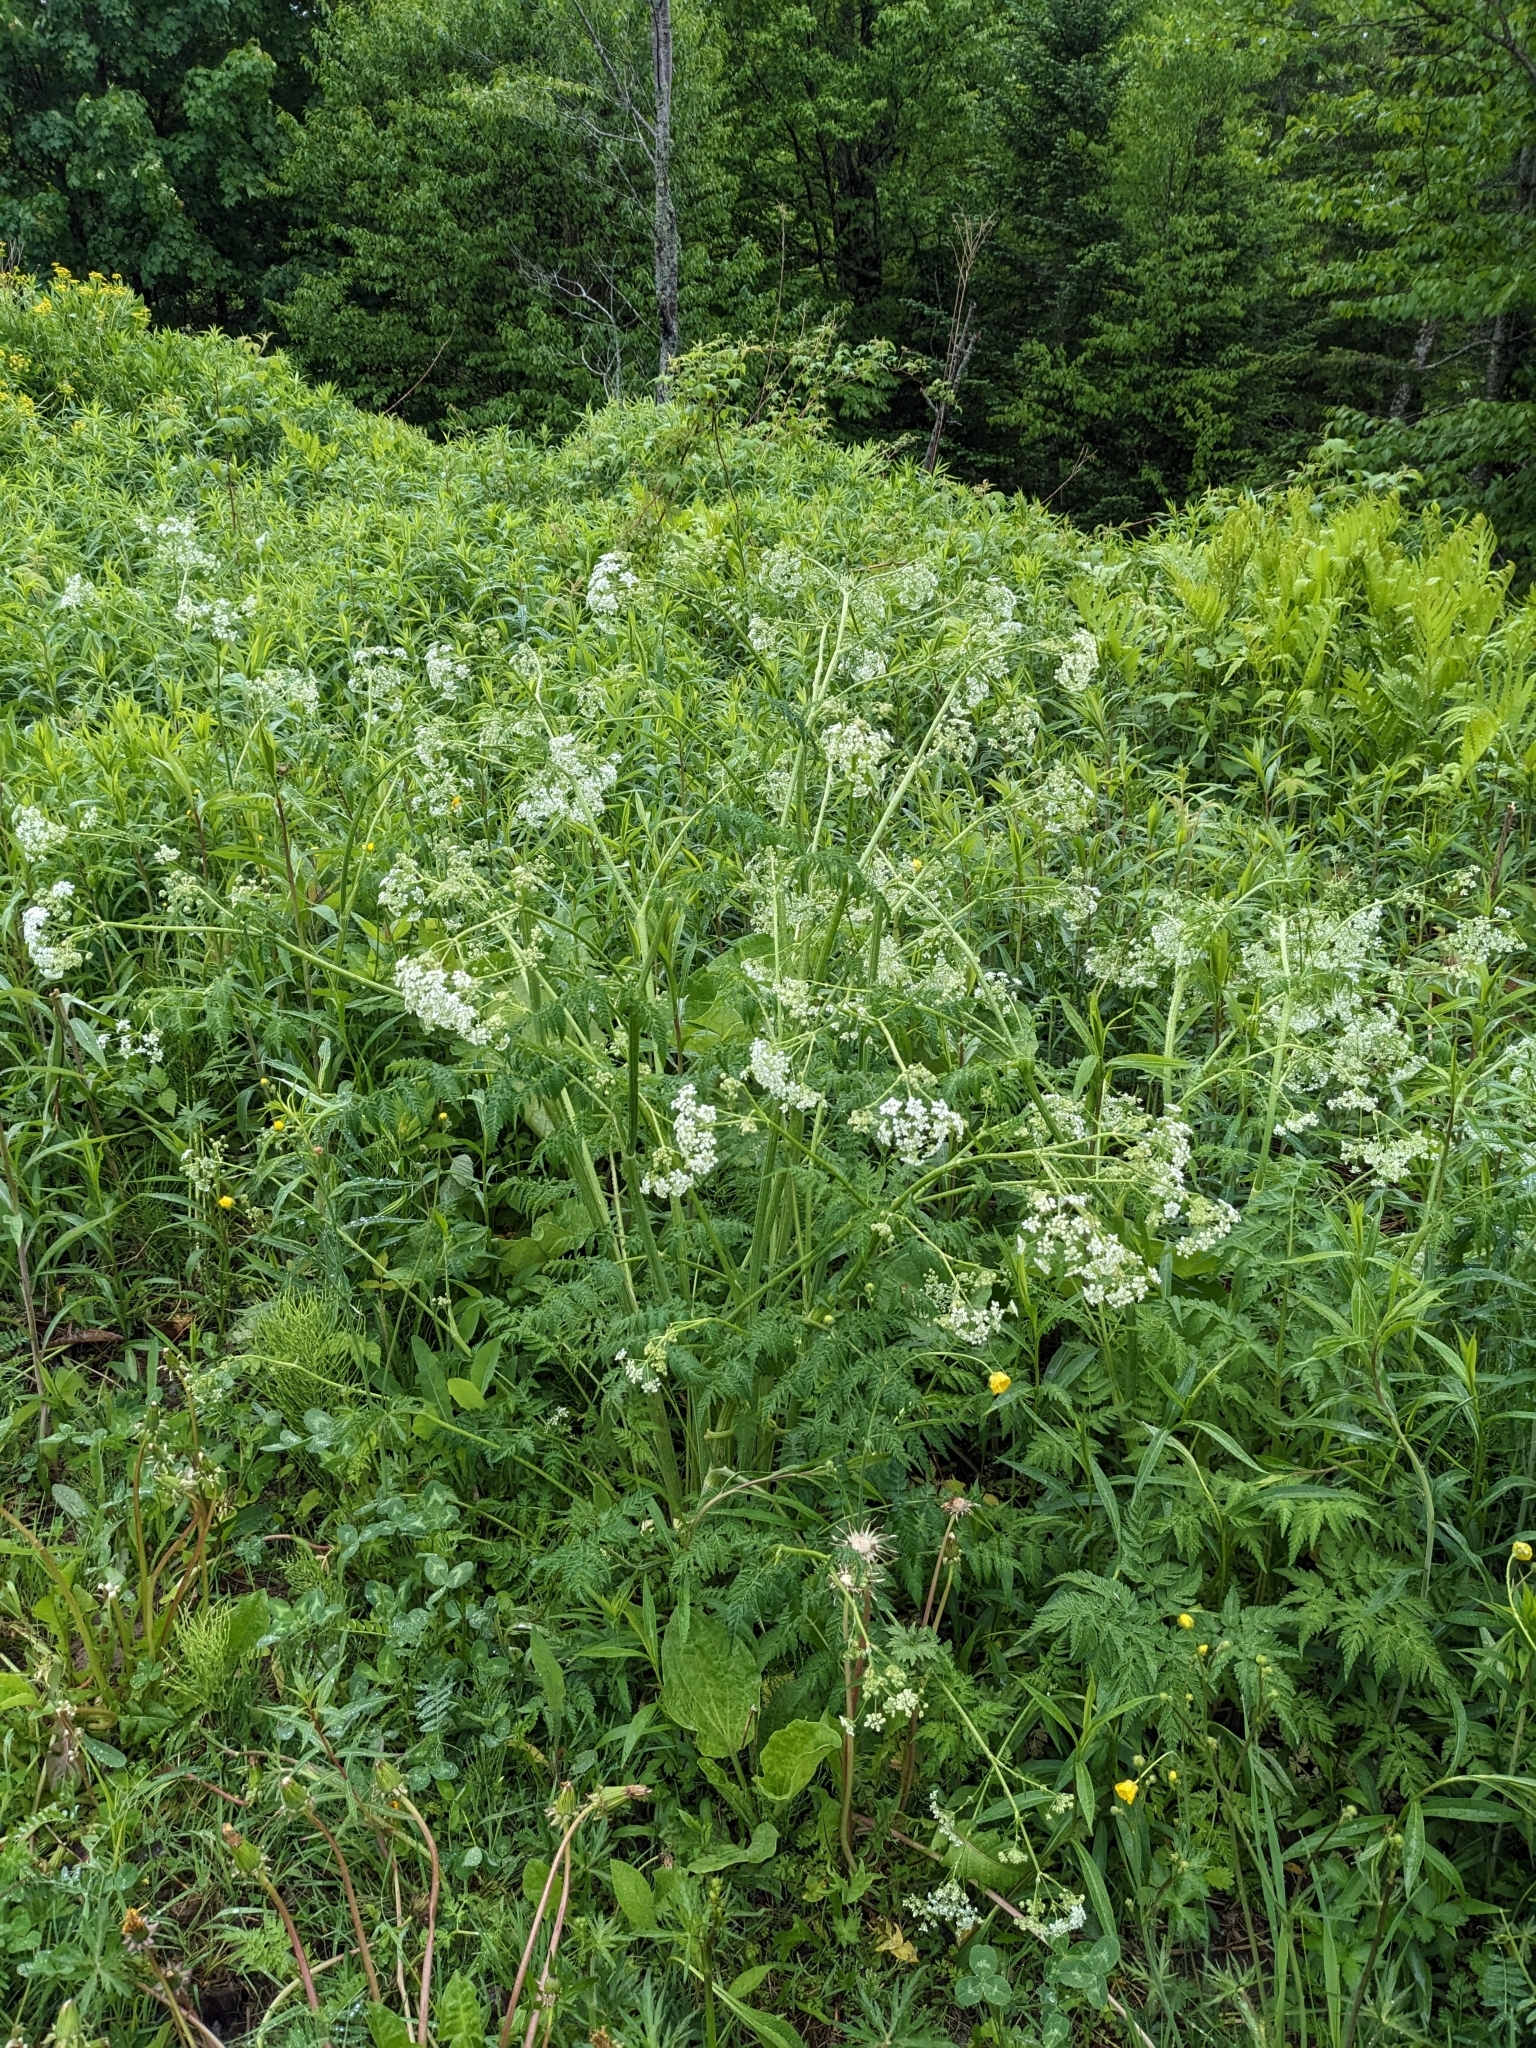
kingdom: Plantae
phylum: Tracheophyta
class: Magnoliopsida
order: Apiales
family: Apiaceae
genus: Anthriscus
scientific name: Anthriscus sylvestris
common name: Cow parsley
